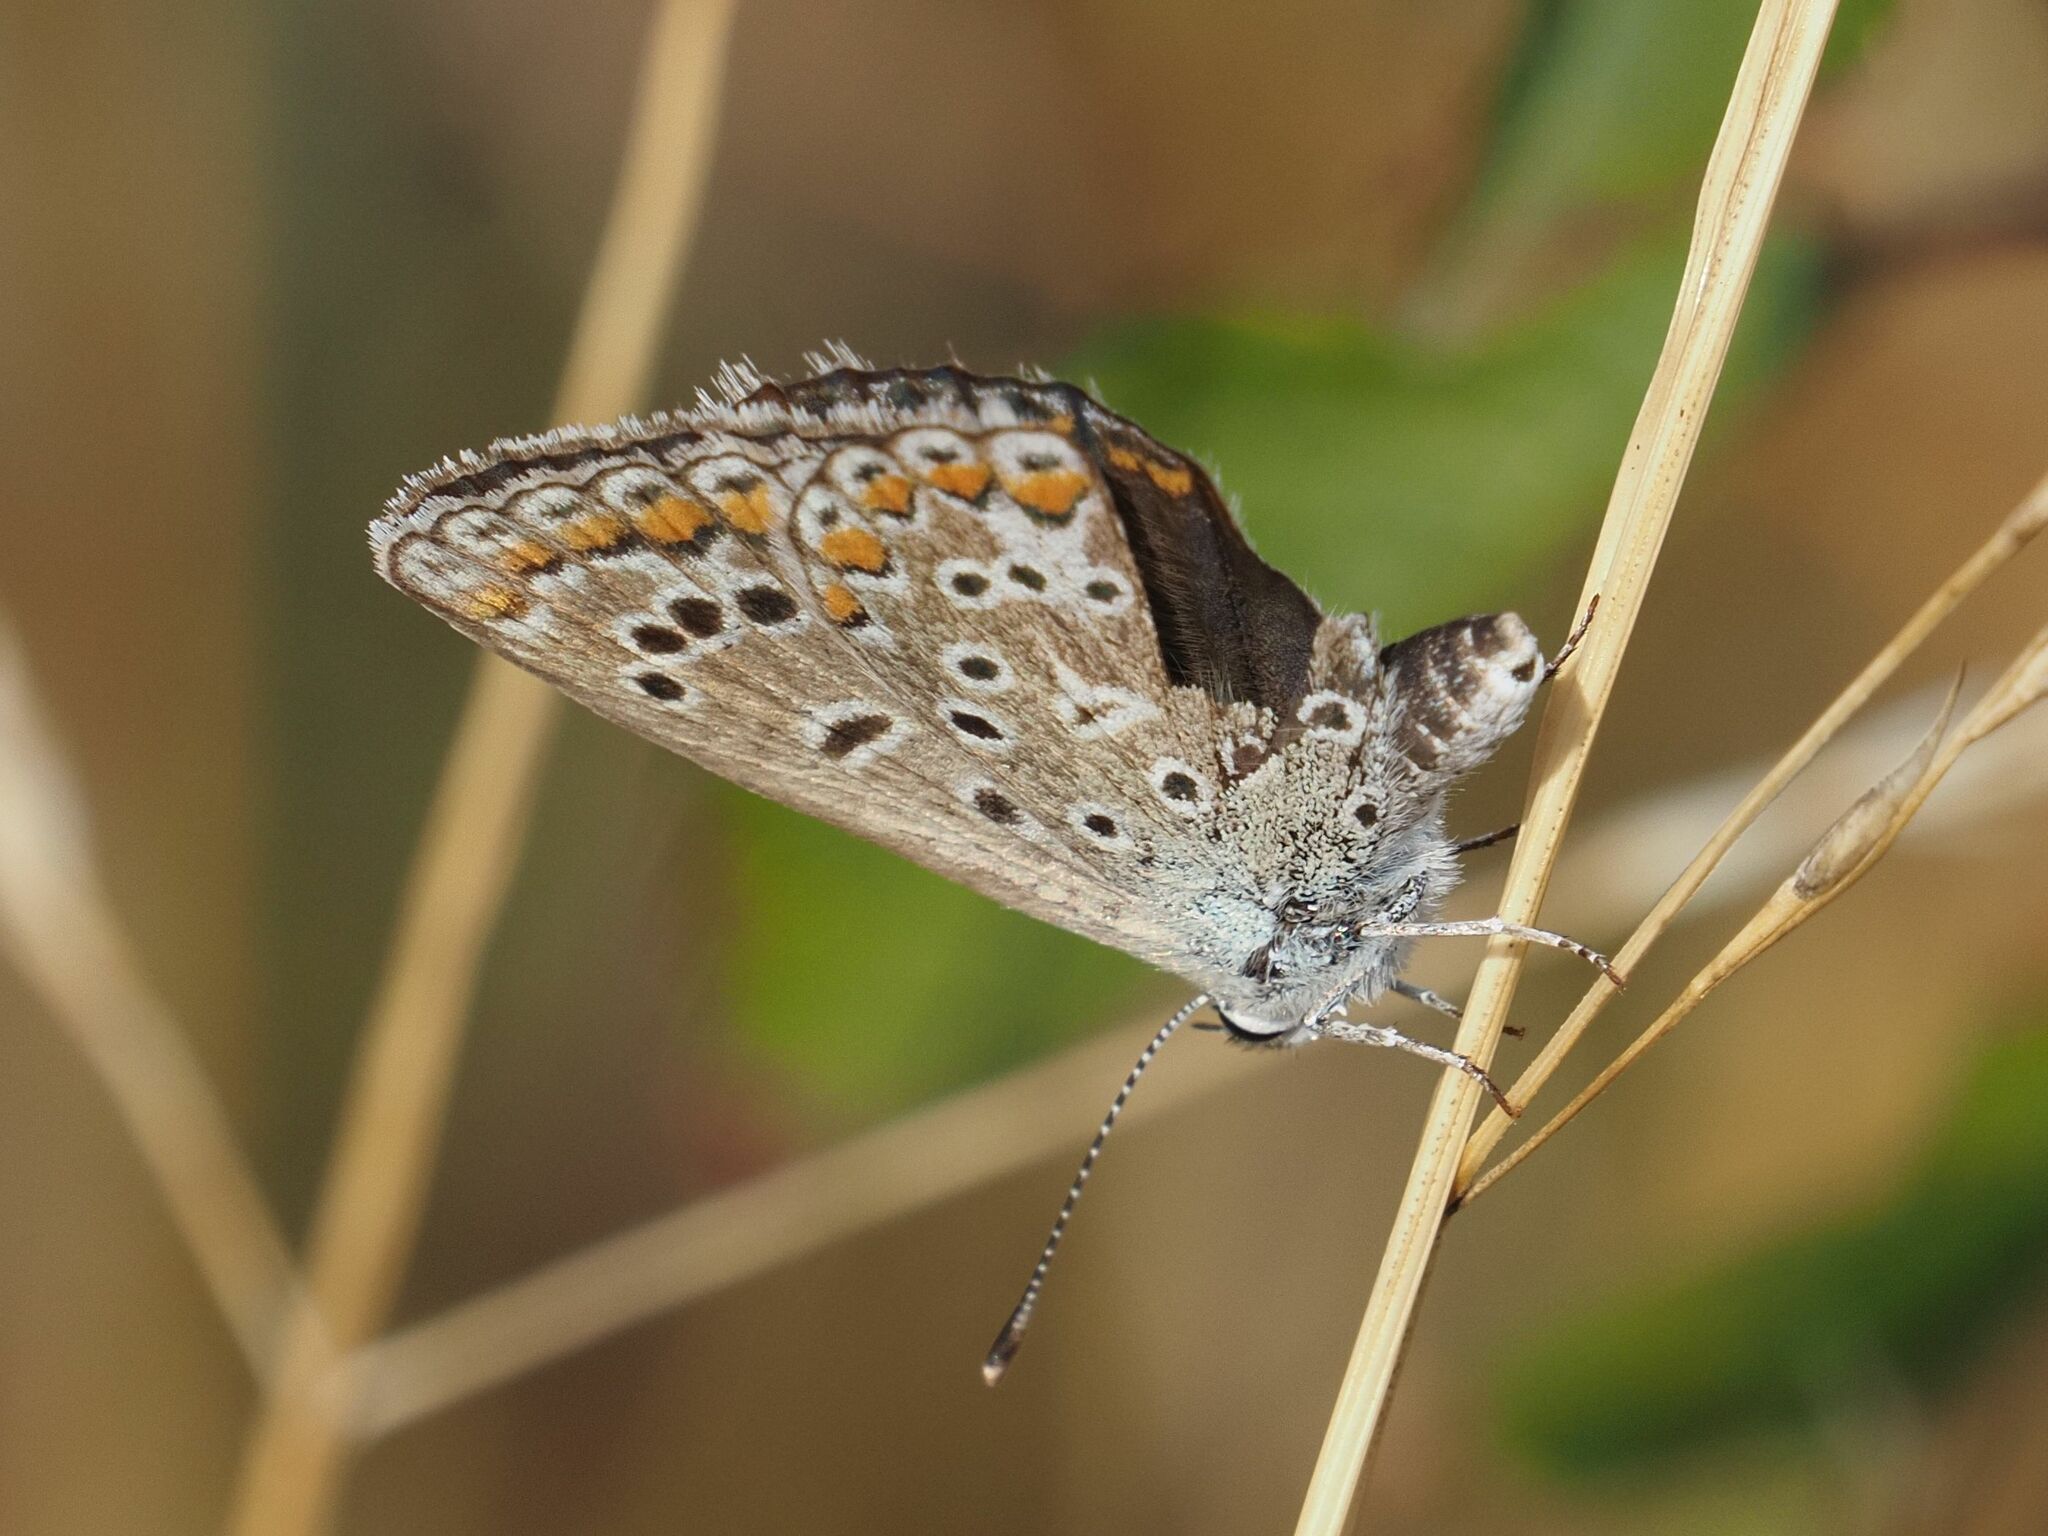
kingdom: Animalia
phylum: Arthropoda
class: Insecta
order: Lepidoptera
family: Lycaenidae
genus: Polyommatus
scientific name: Polyommatus icarus
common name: Common blue
